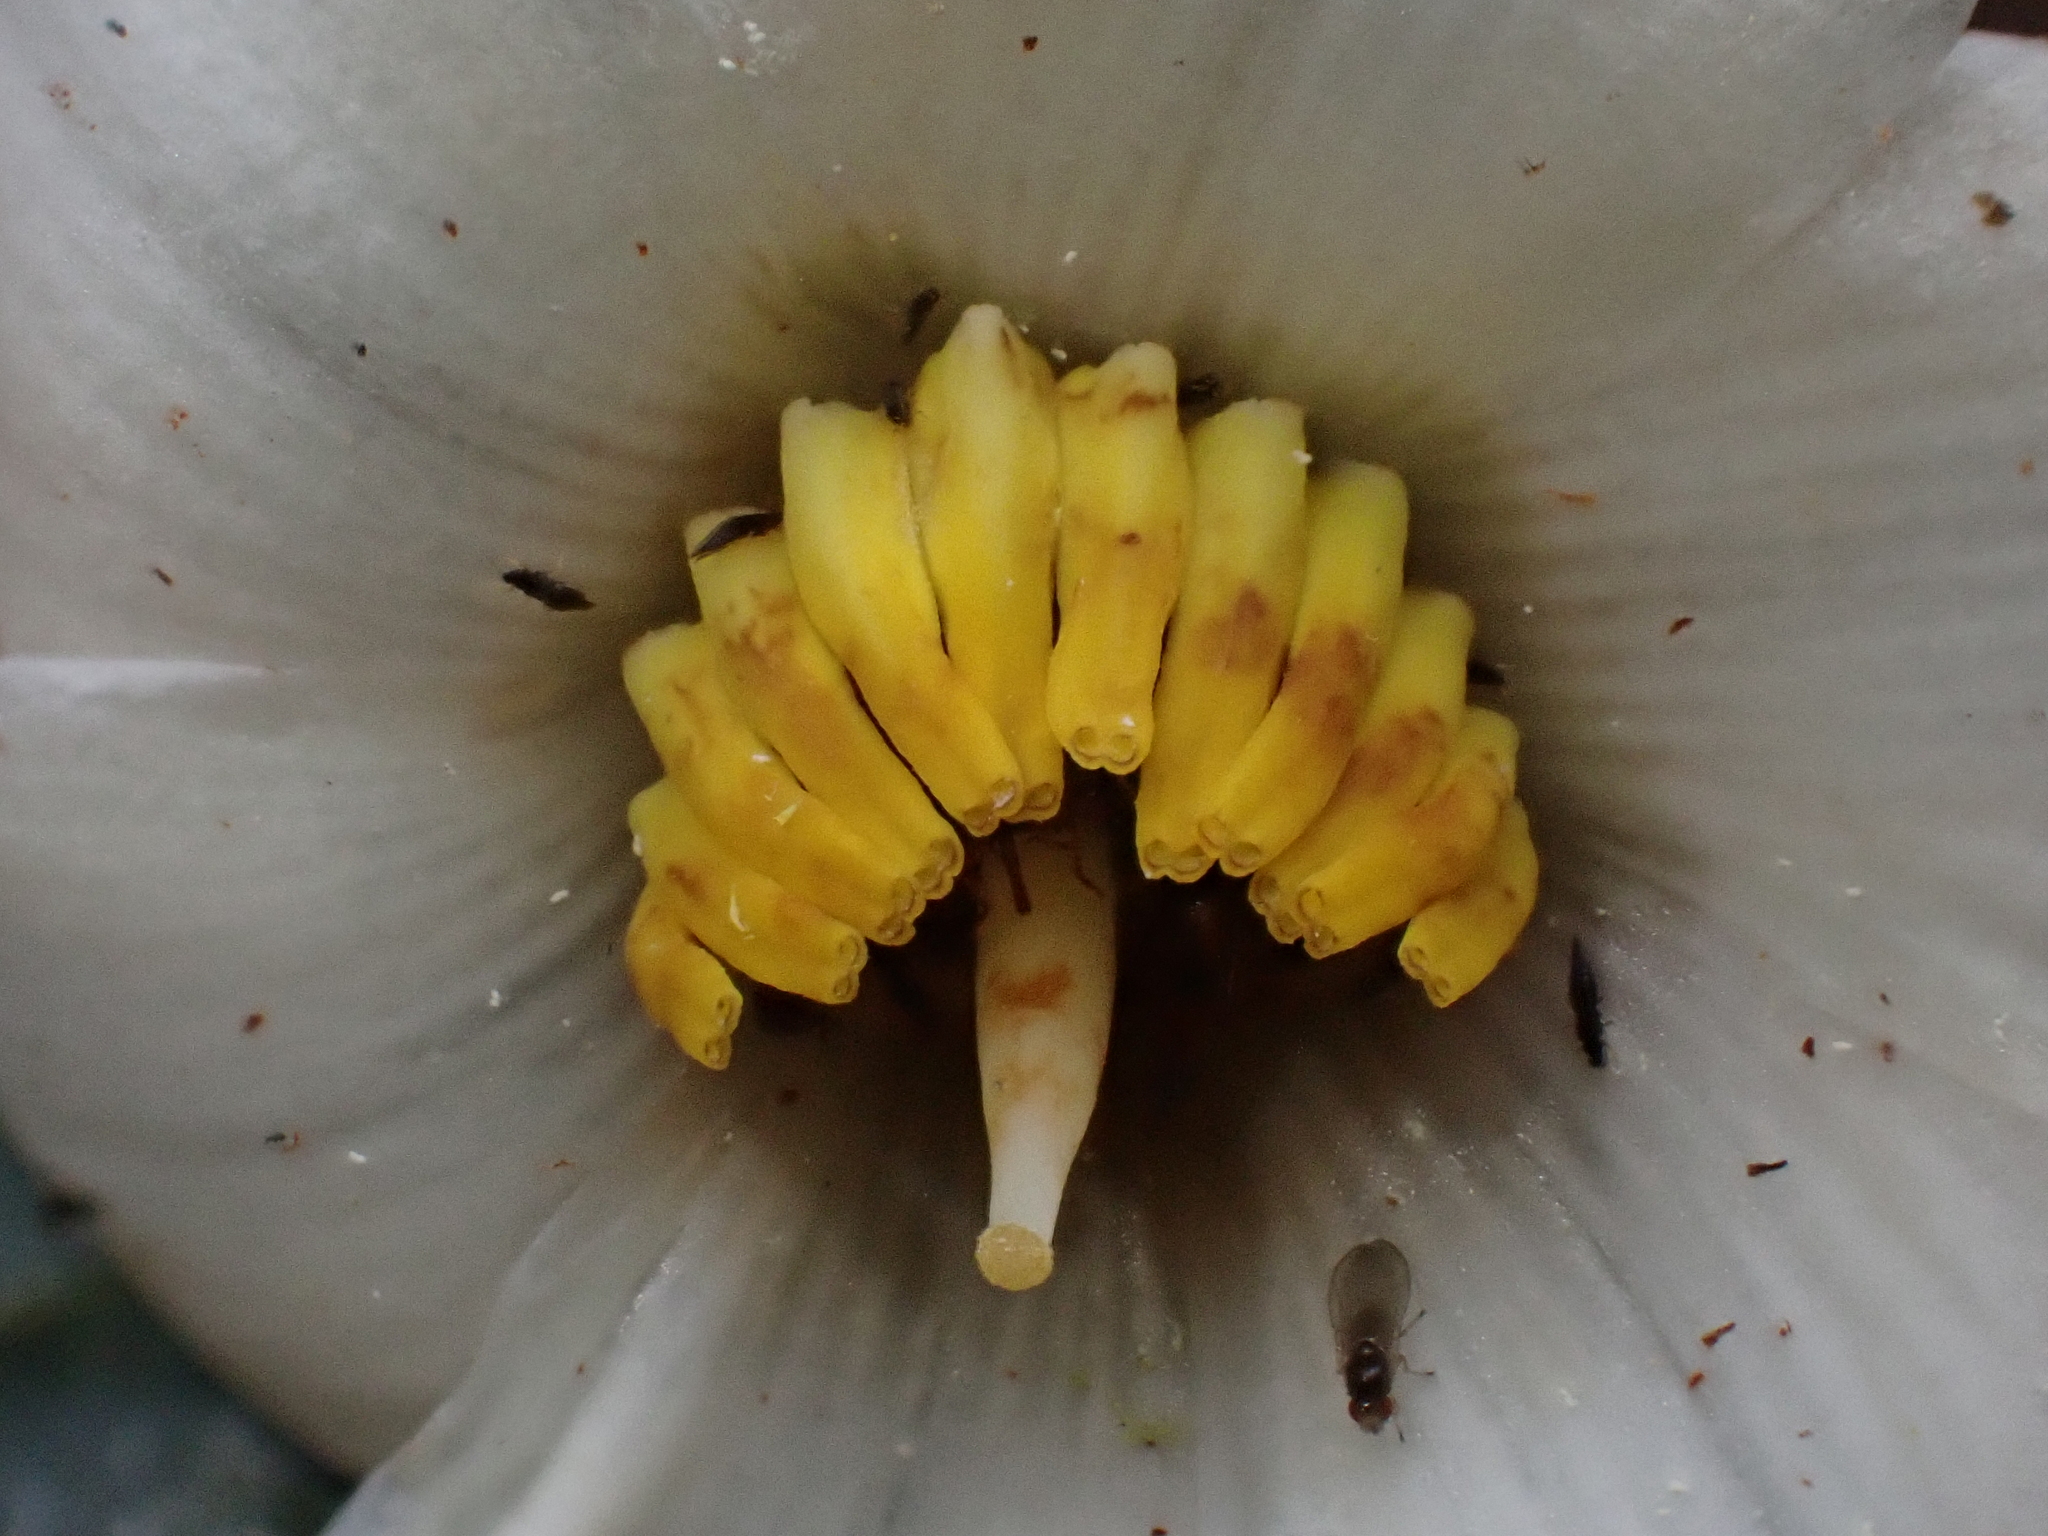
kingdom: Plantae
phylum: Tracheophyta
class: Magnoliopsida
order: Myrtales
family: Melastomataceae
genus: Blakea
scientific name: Blakea setosa
